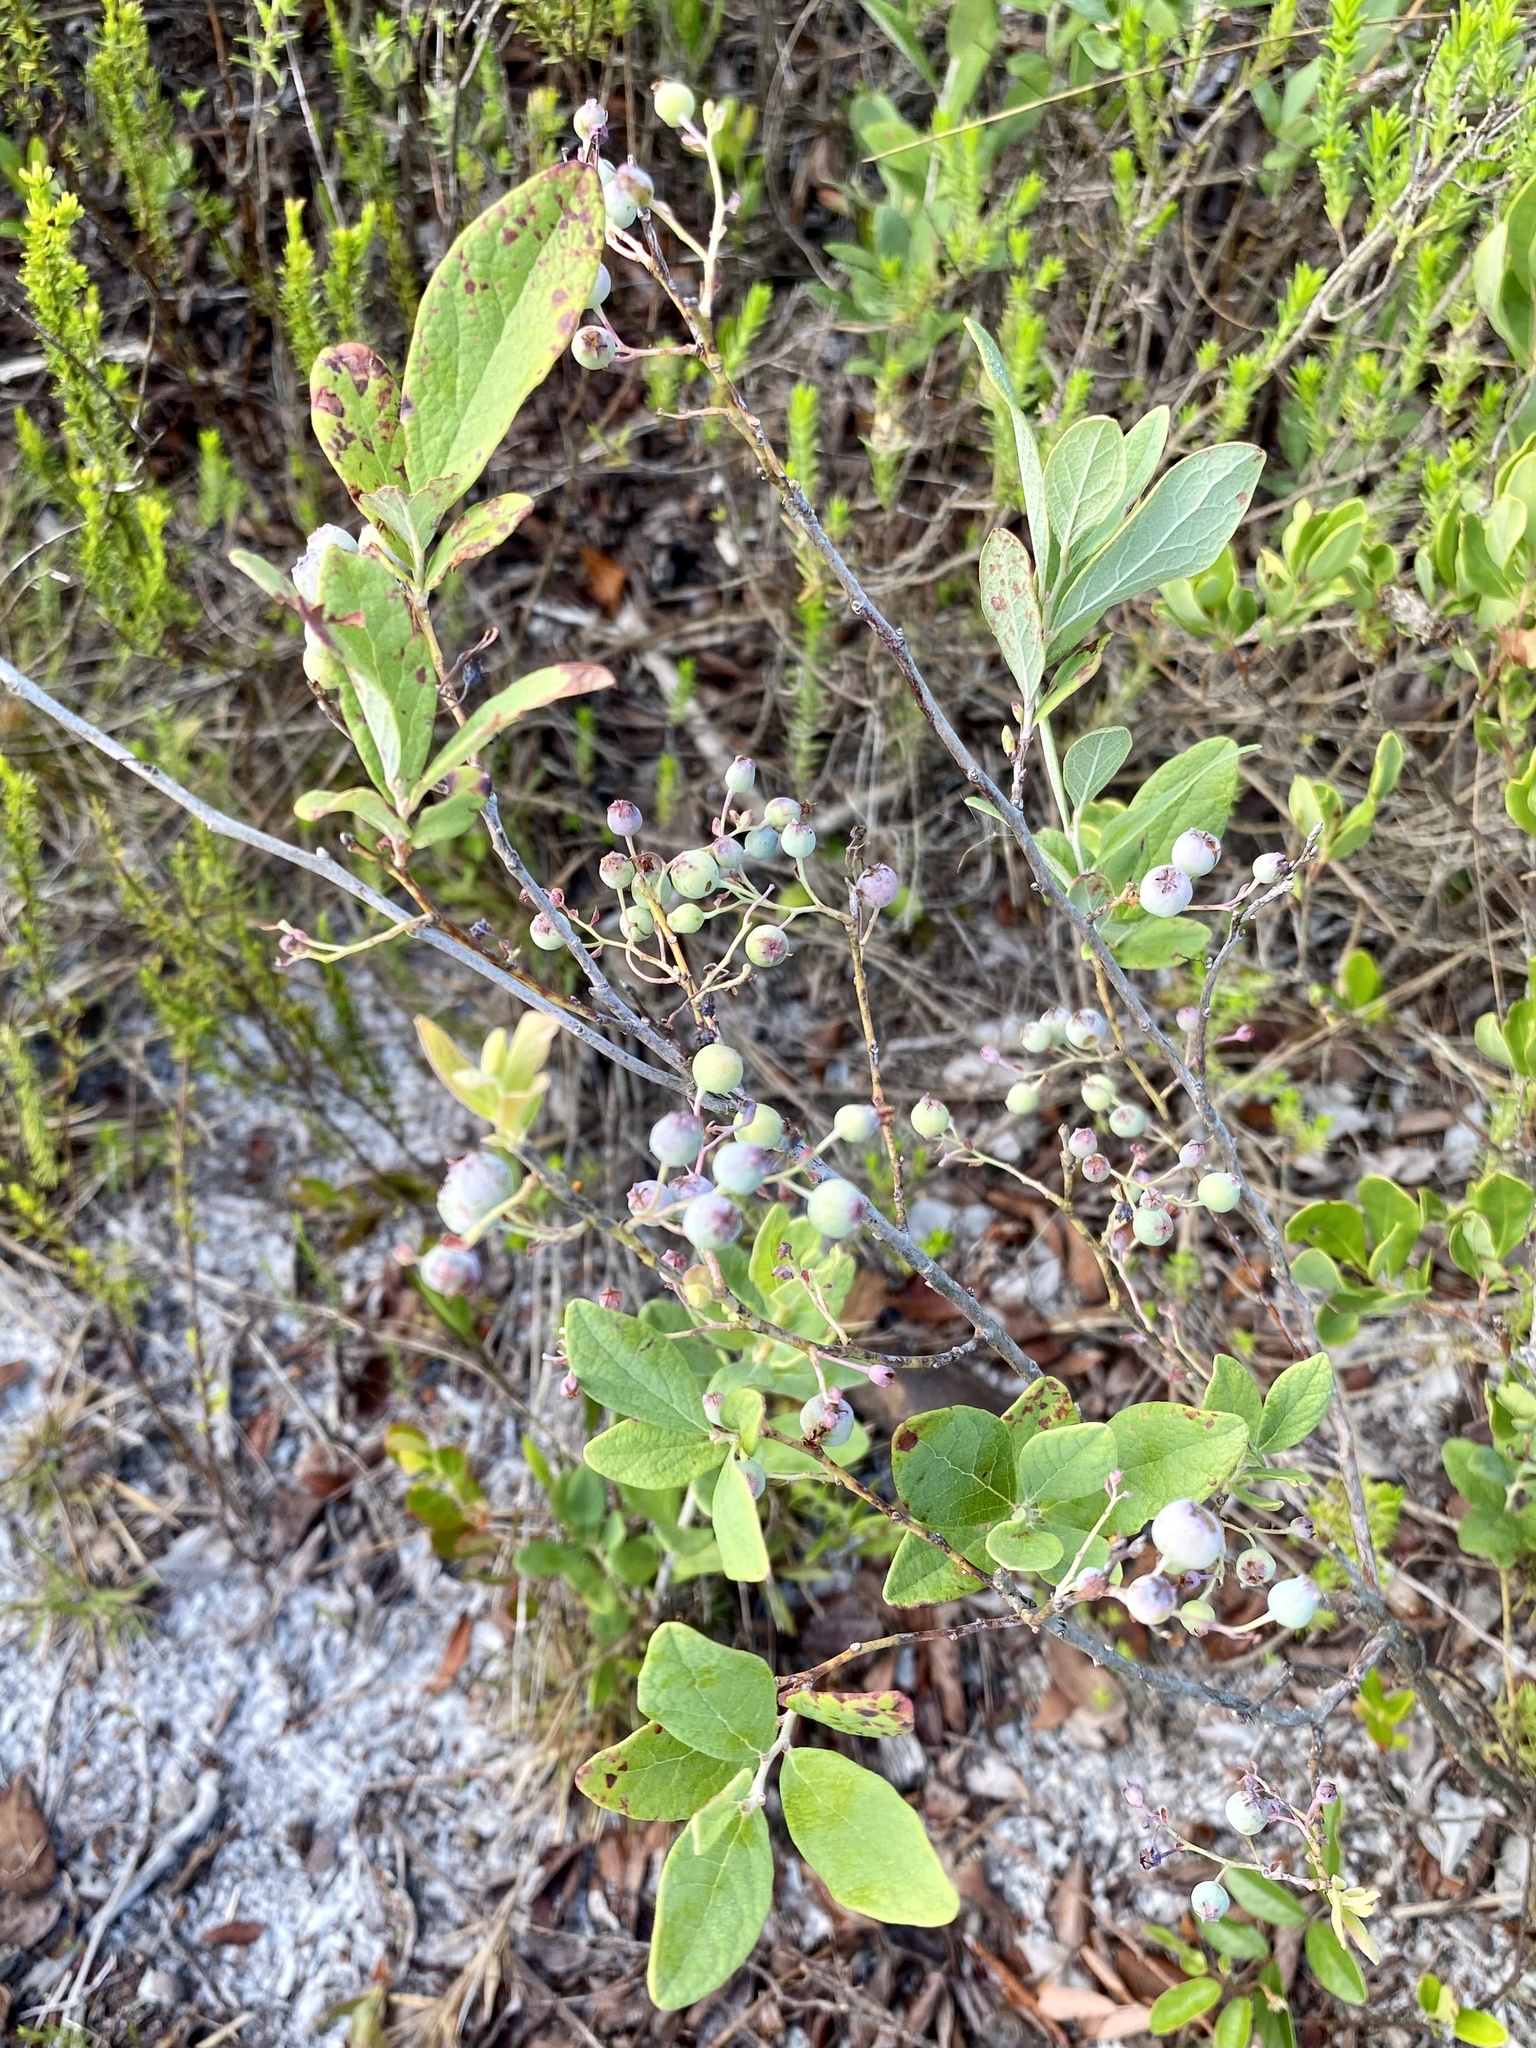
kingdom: Plantae
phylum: Tracheophyta
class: Magnoliopsida
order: Ericales
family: Ericaceae
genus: Gaylussacia
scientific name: Gaylussacia nana
